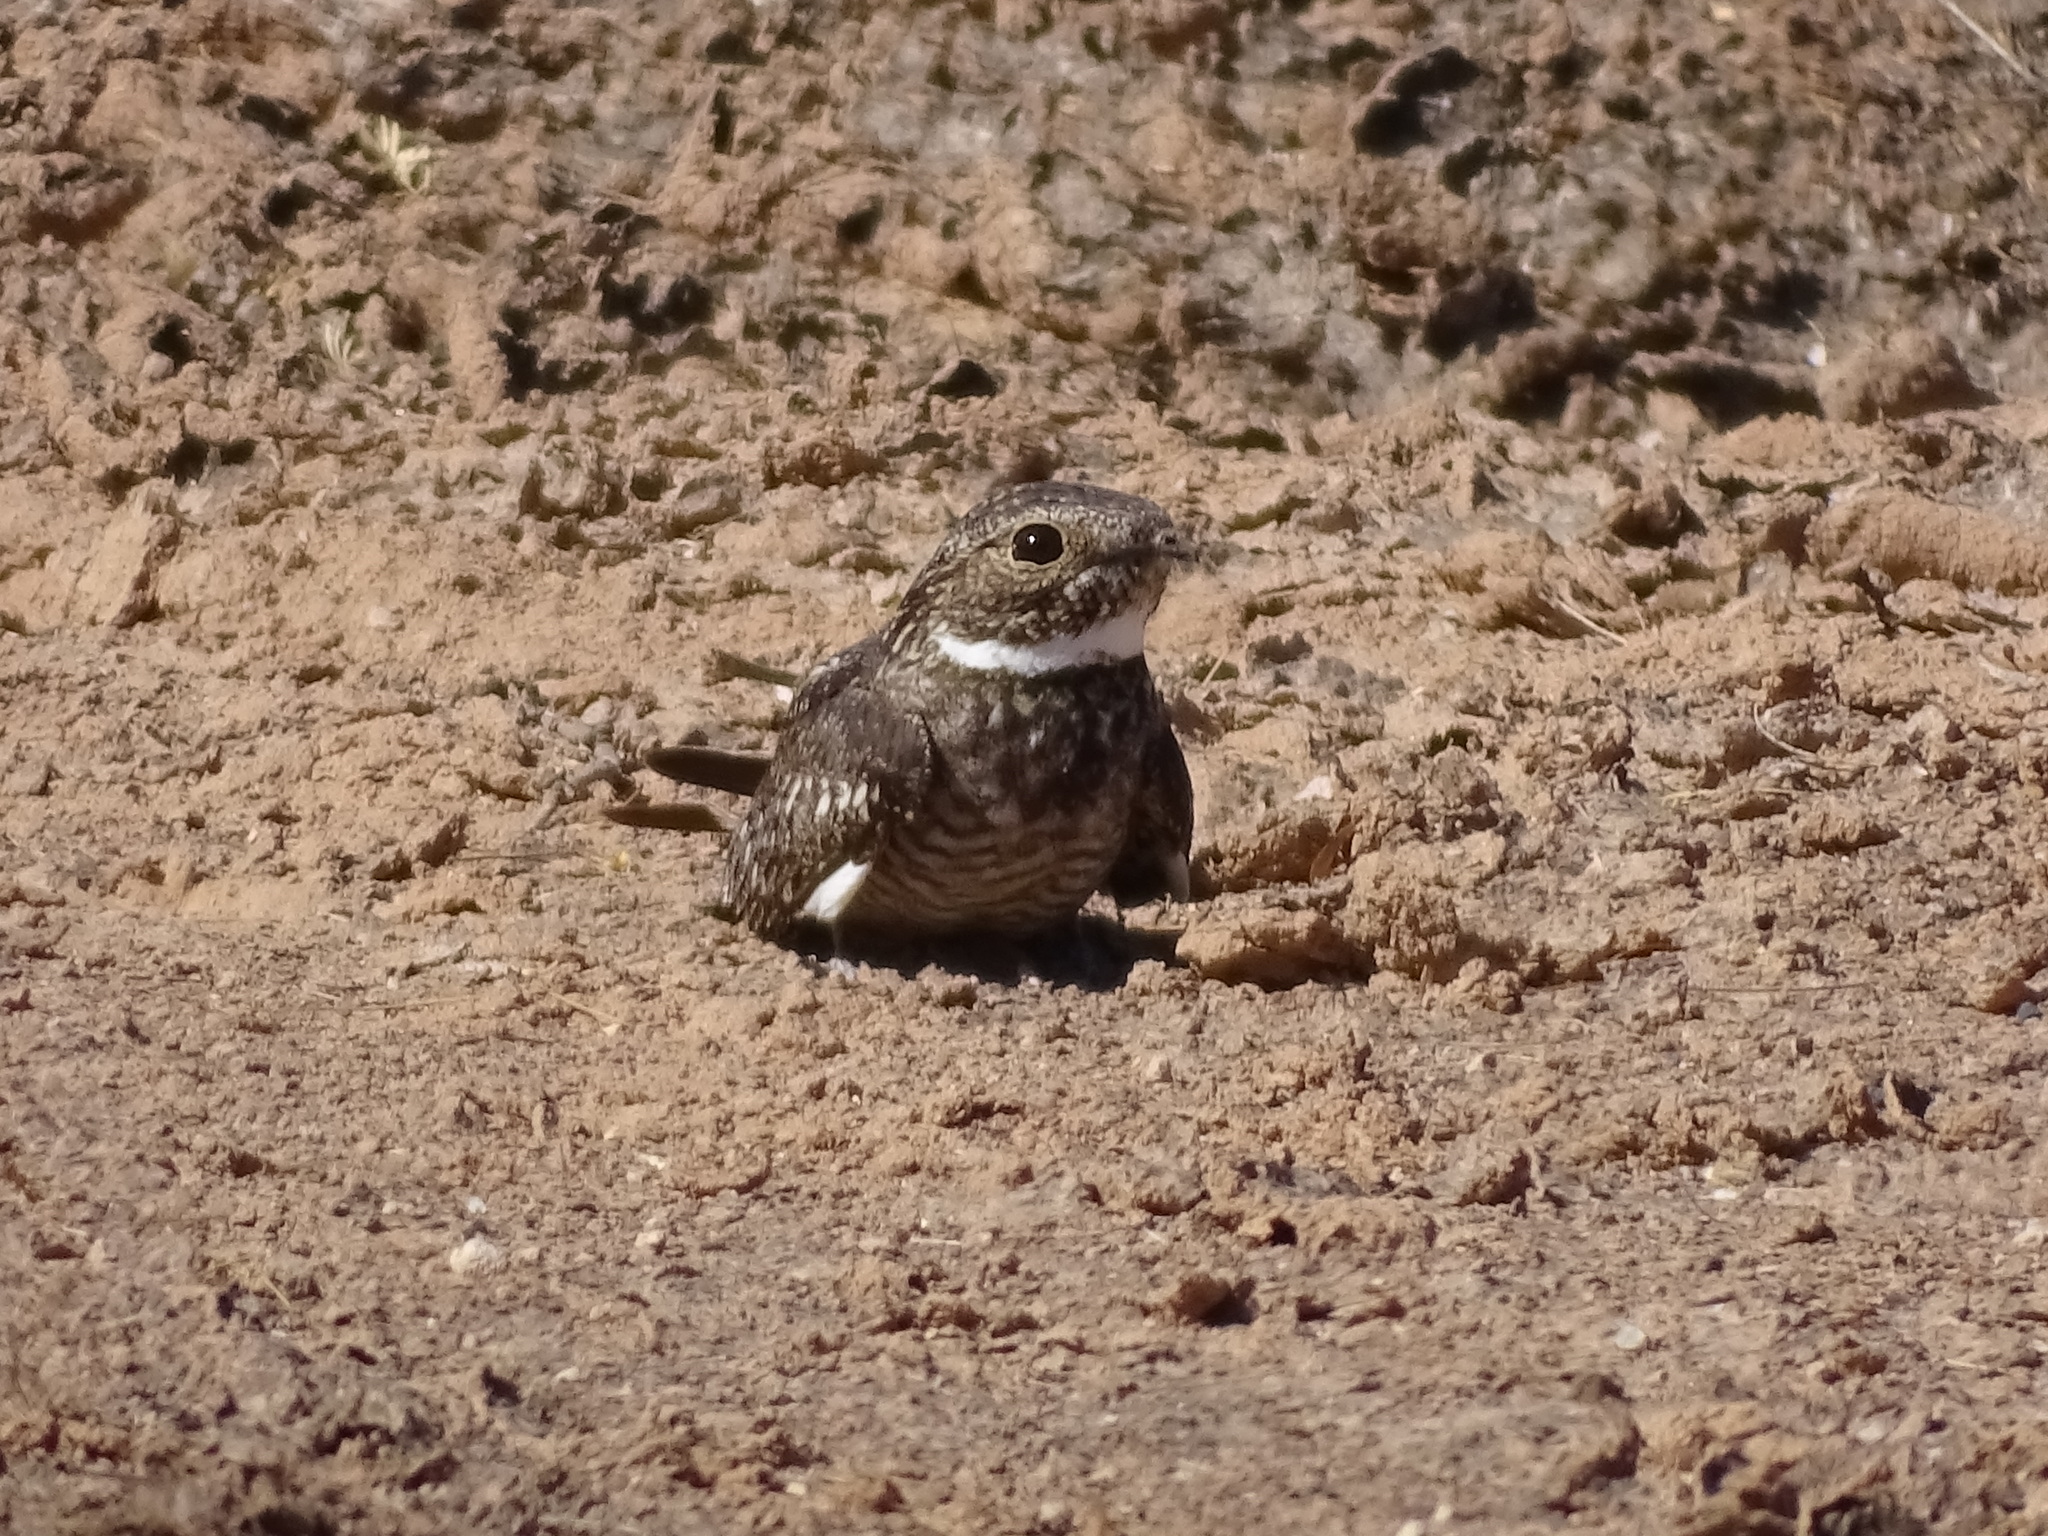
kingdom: Animalia
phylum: Chordata
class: Aves
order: Caprimulgiformes
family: Caprimulgidae
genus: Chordeiles
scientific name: Chordeiles acutipennis
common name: Lesser nighthawk
